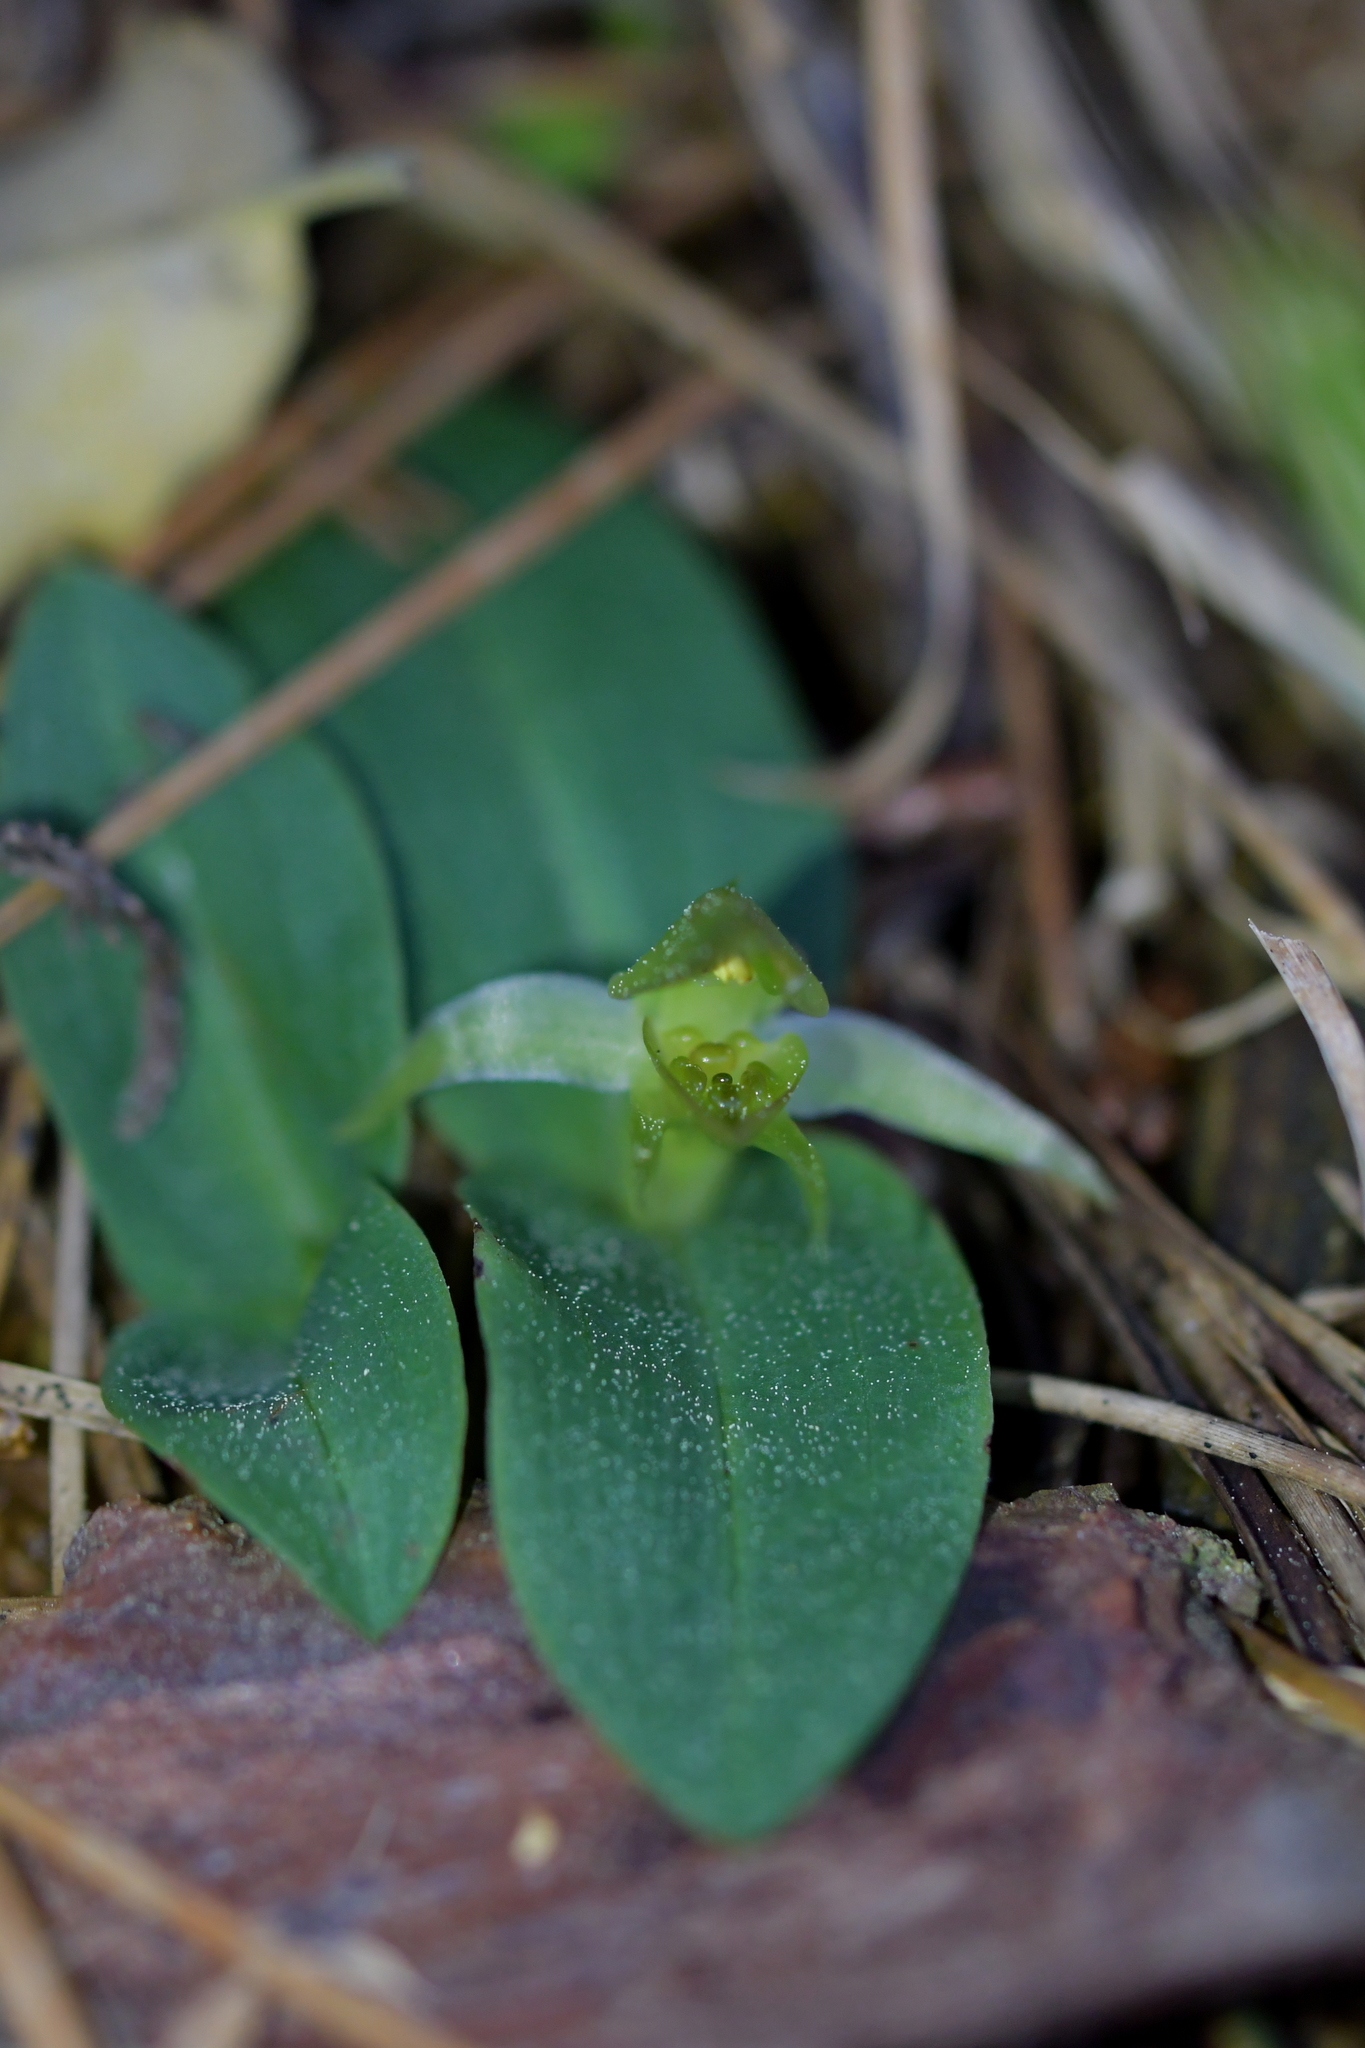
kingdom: Plantae
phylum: Tracheophyta
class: Liliopsida
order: Asparagales
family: Orchidaceae
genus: Chiloglottis
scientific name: Chiloglottis cornuta
